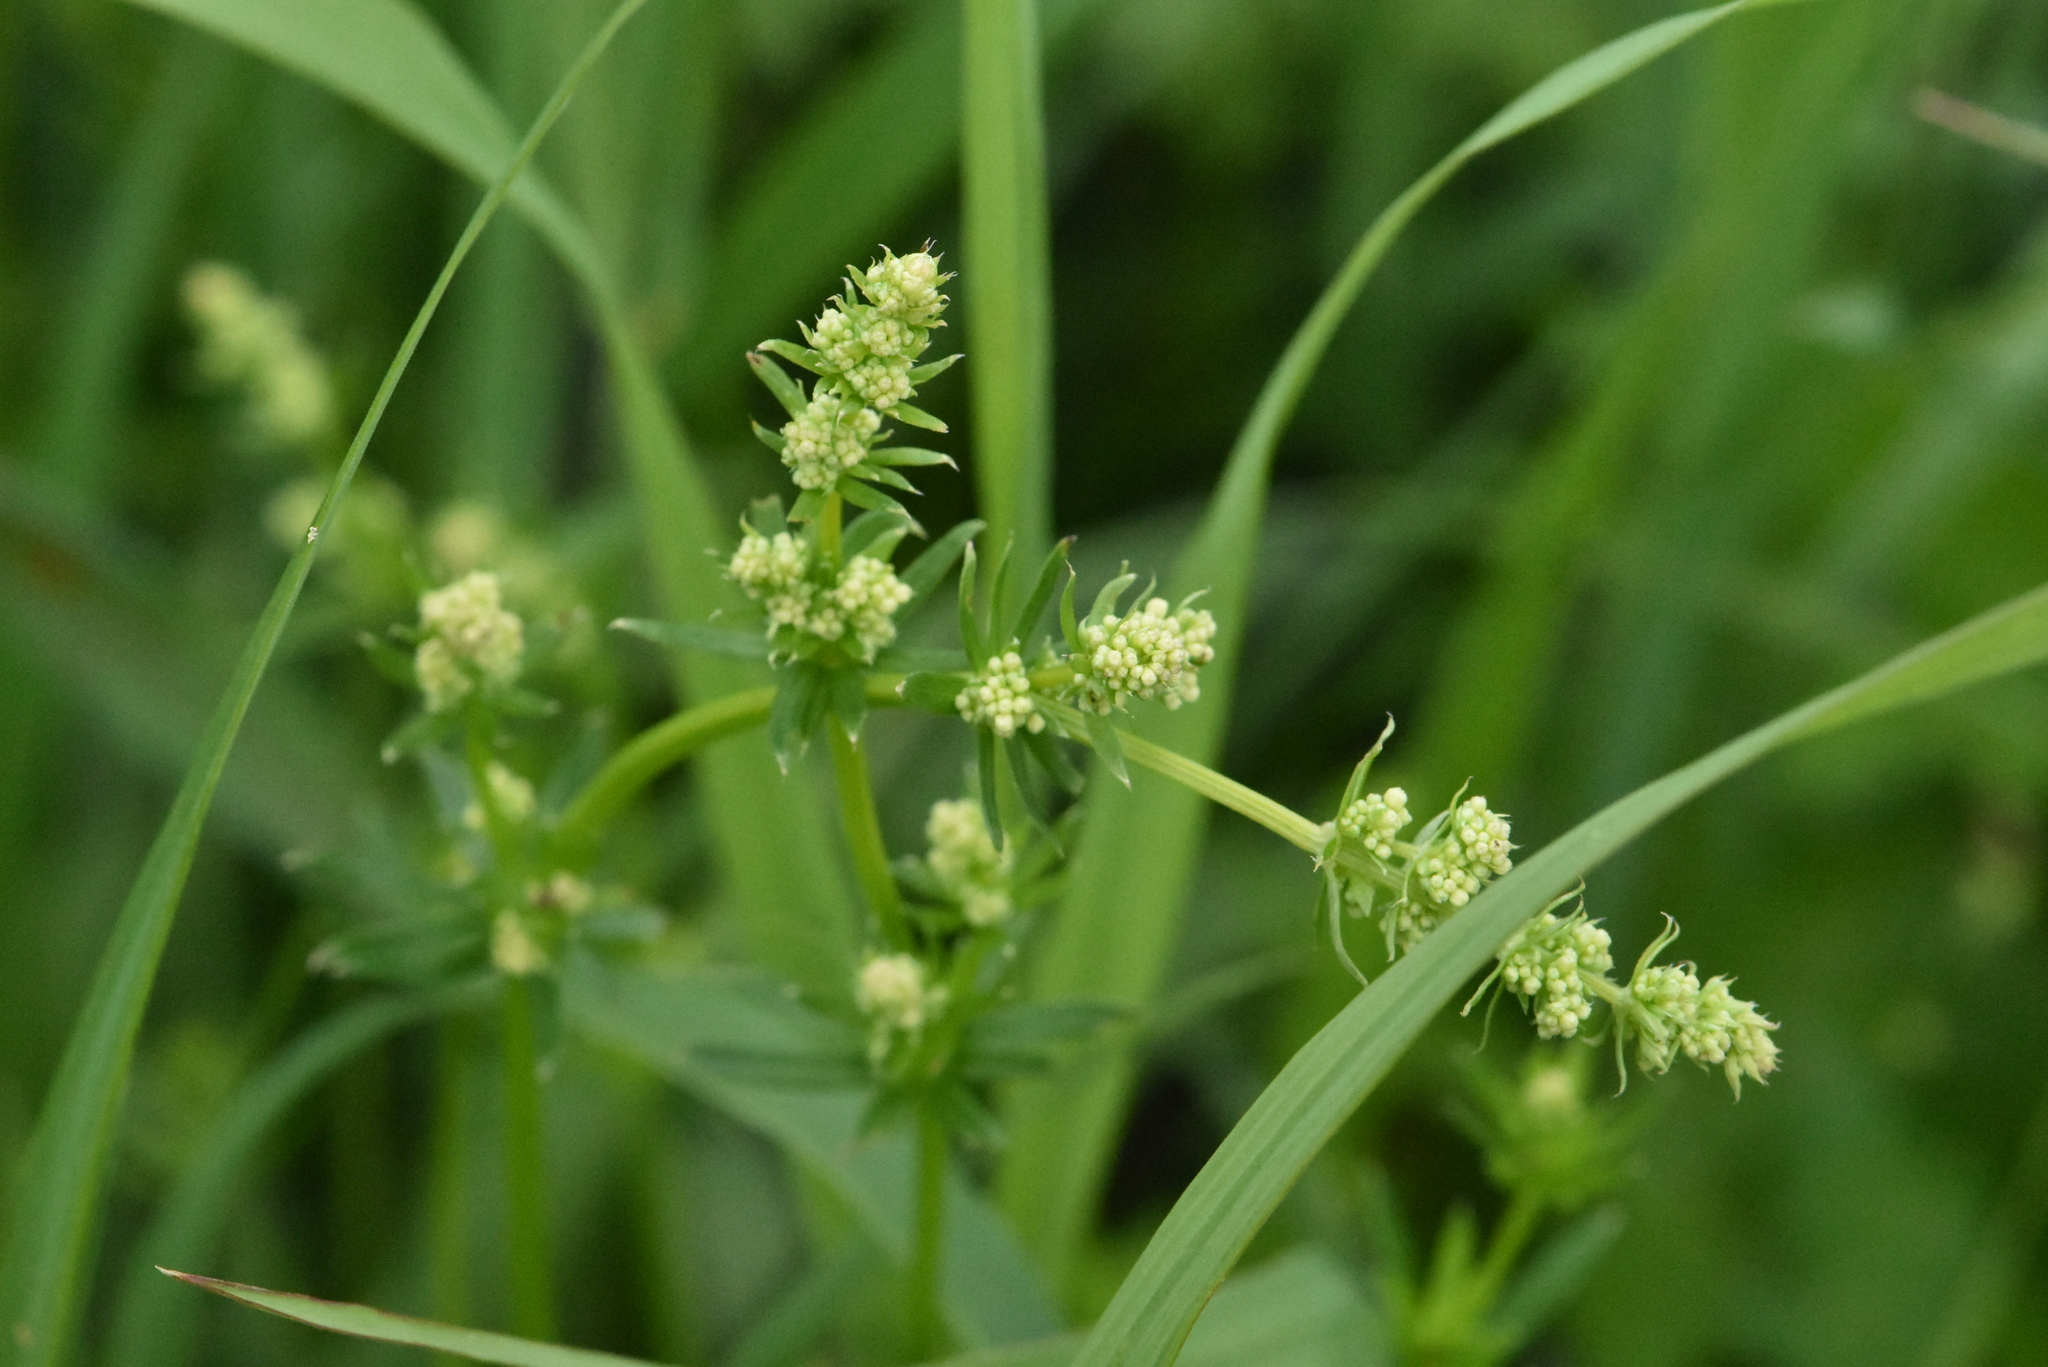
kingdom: Plantae
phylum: Tracheophyta
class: Magnoliopsida
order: Gentianales
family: Rubiaceae
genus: Galium
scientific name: Galium mollugo
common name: Hedge bedstraw
